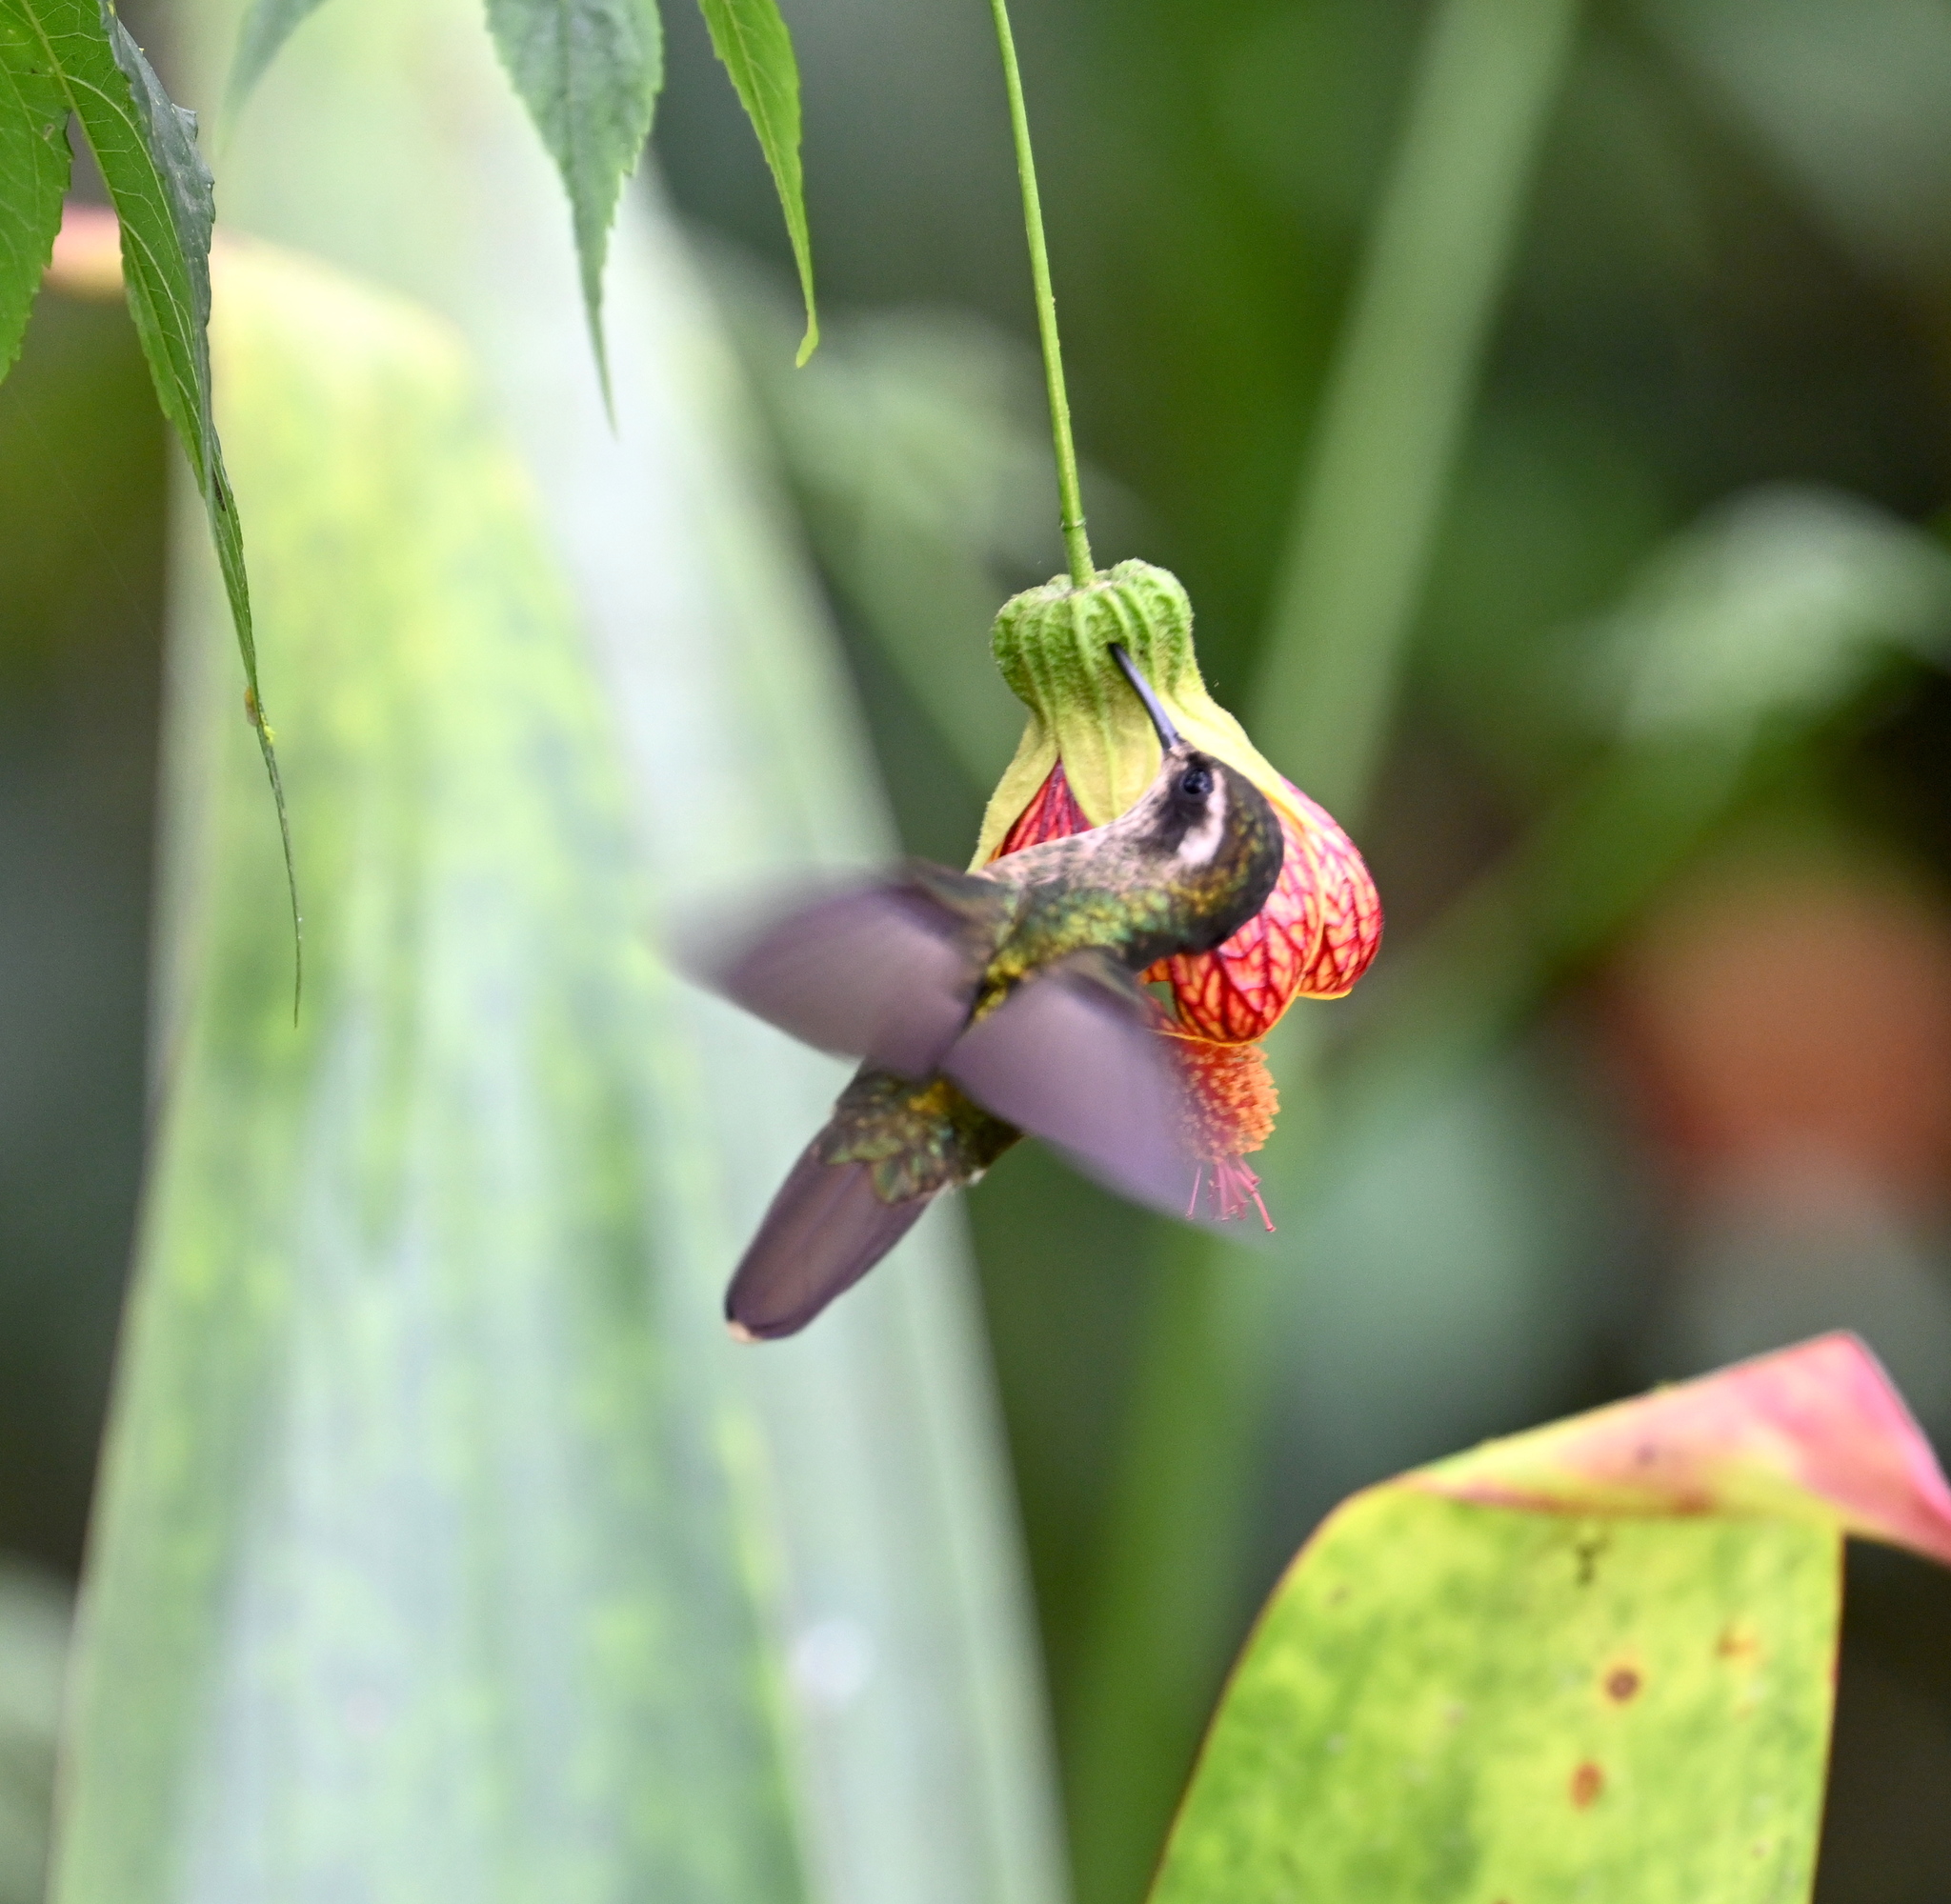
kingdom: Animalia
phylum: Chordata
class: Aves
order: Apodiformes
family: Trochilidae
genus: Adelomyia
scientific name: Adelomyia melanogenys
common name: Speckled hummingbird
